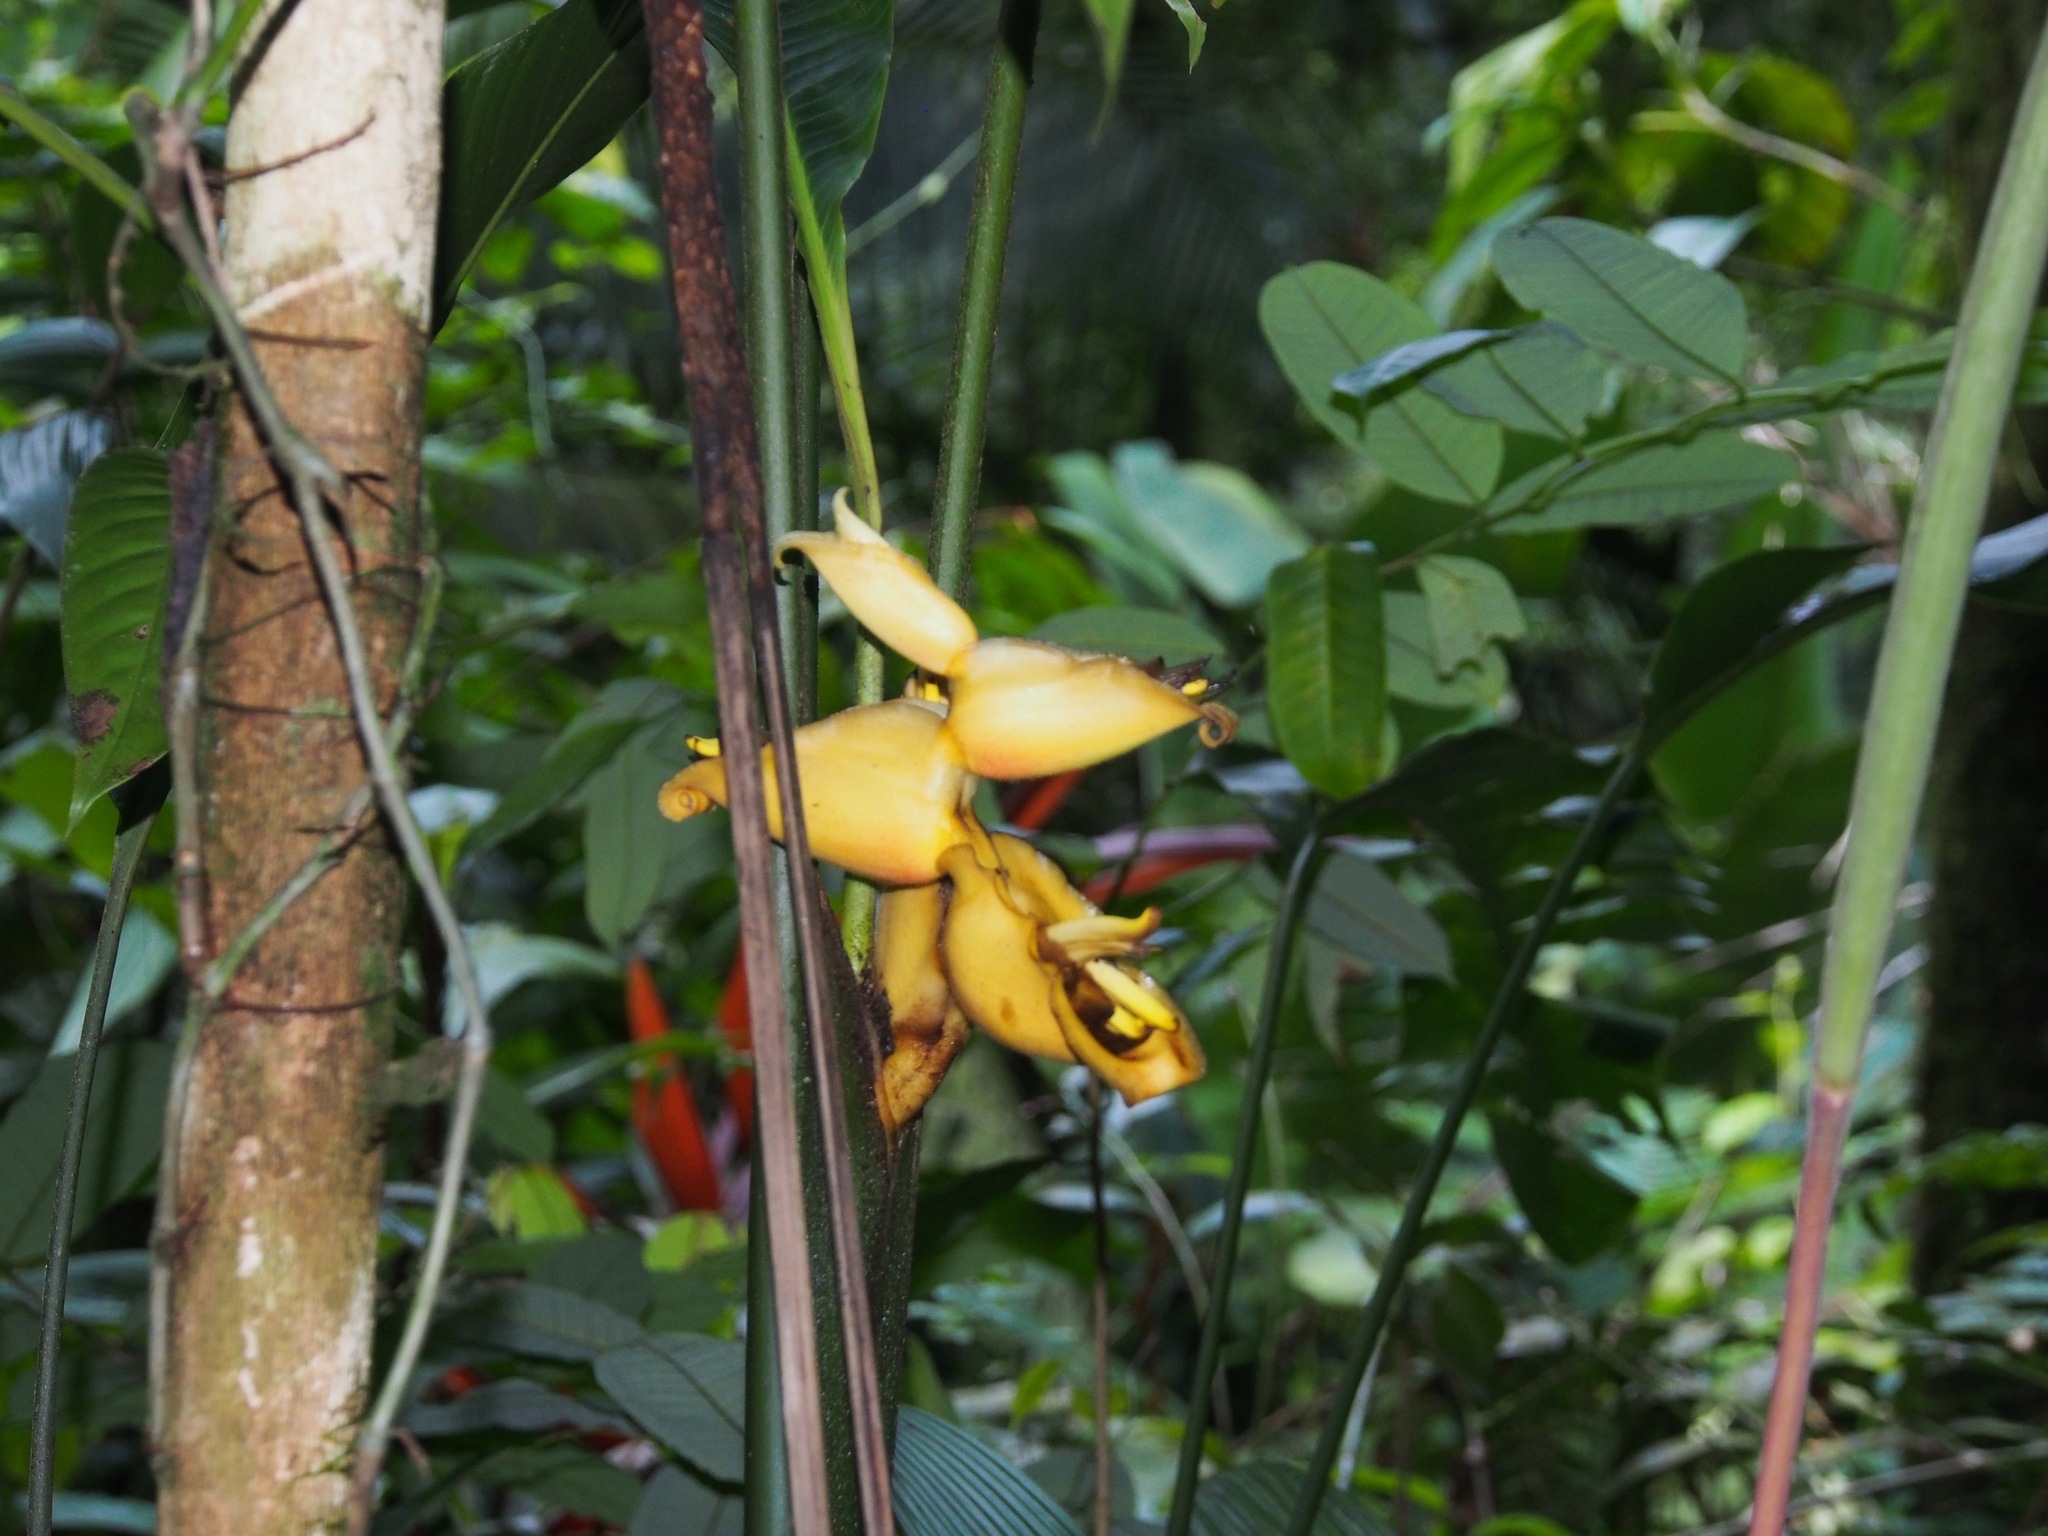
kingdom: Plantae
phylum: Tracheophyta
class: Liliopsida
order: Zingiberales
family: Heliconiaceae
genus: Heliconia
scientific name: Heliconia umbrophila
